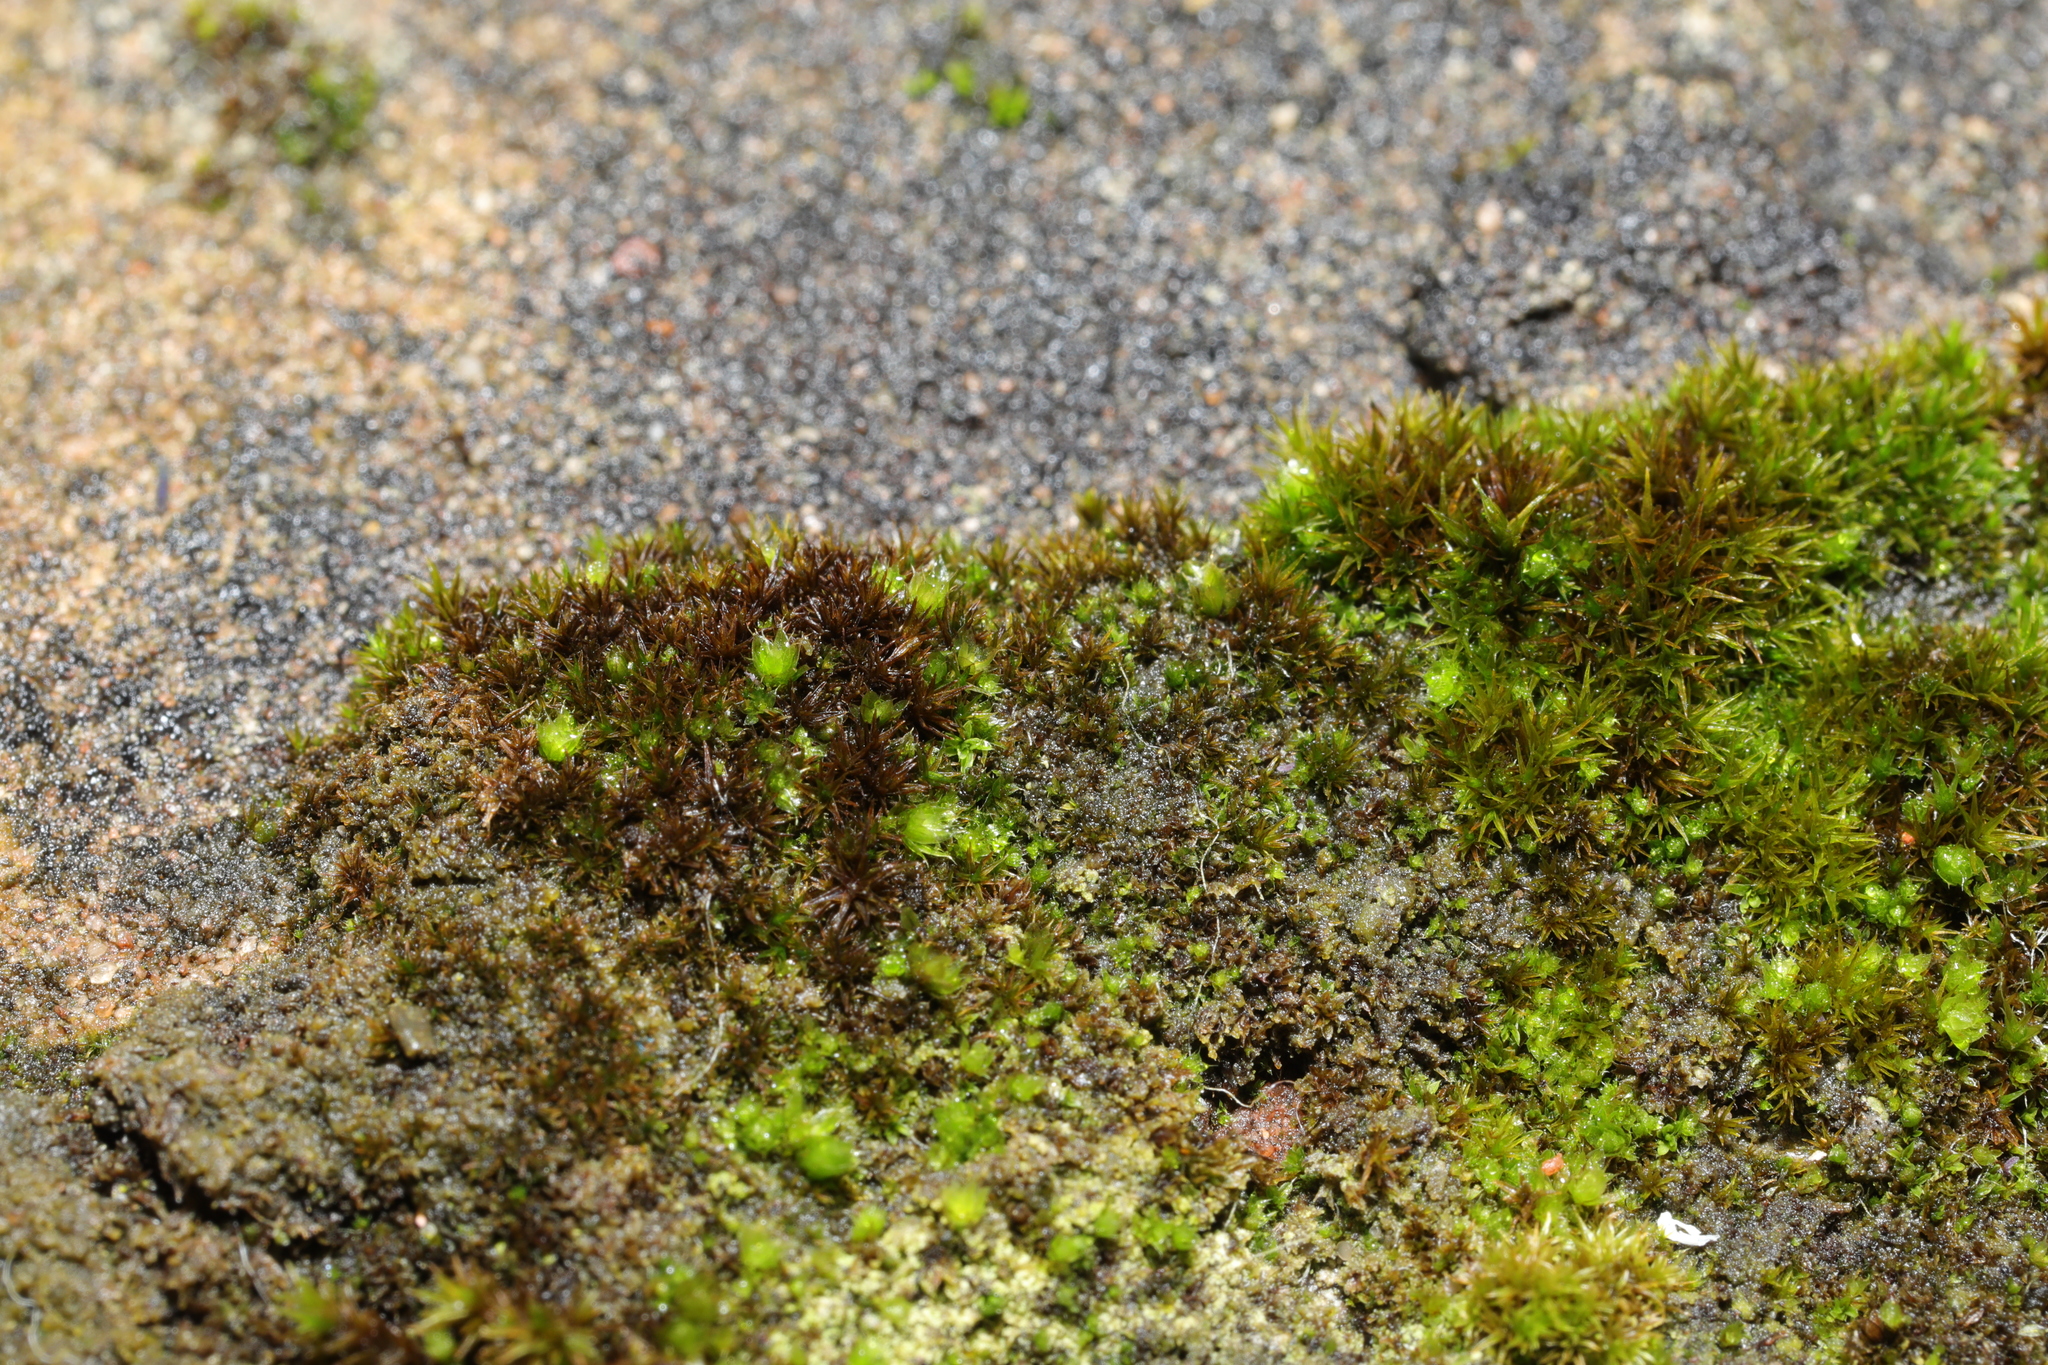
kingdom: Plantae
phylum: Bryophyta
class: Bryopsida
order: Pottiales
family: Pottiaceae
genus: Bryoerythrophyllum
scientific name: Bryoerythrophyllum recurvirostrum
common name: Red beard moss
